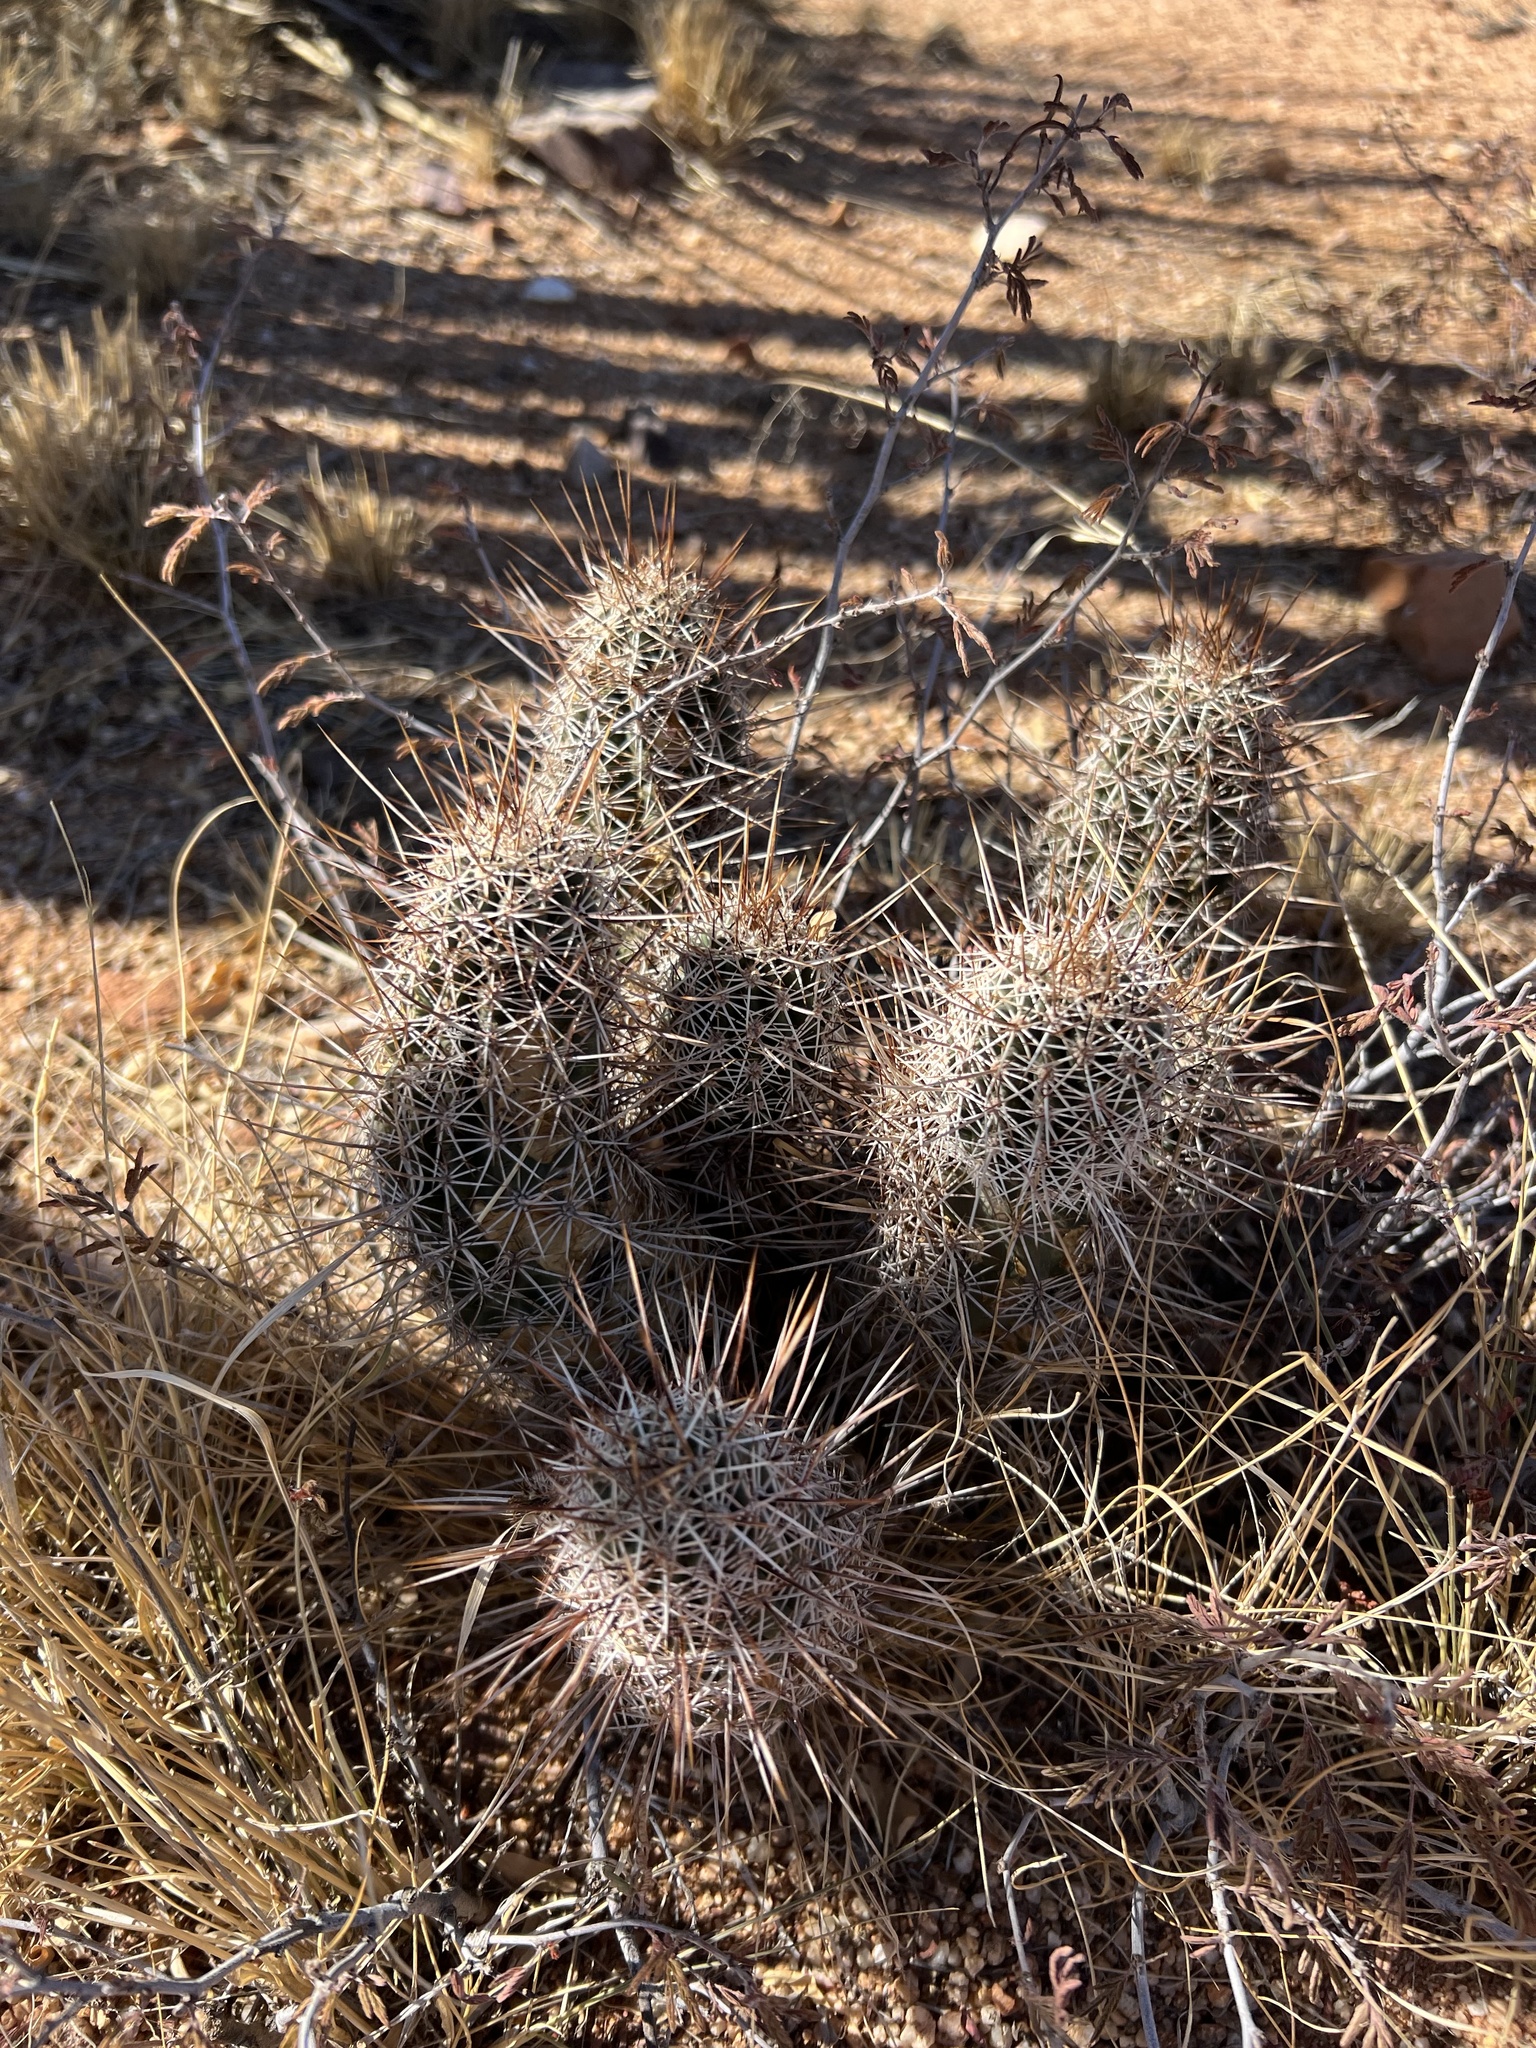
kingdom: Plantae
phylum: Tracheophyta
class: Magnoliopsida
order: Caryophyllales
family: Cactaceae
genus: Echinocereus
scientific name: Echinocereus fasciculatus
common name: Bundle hedgehog
